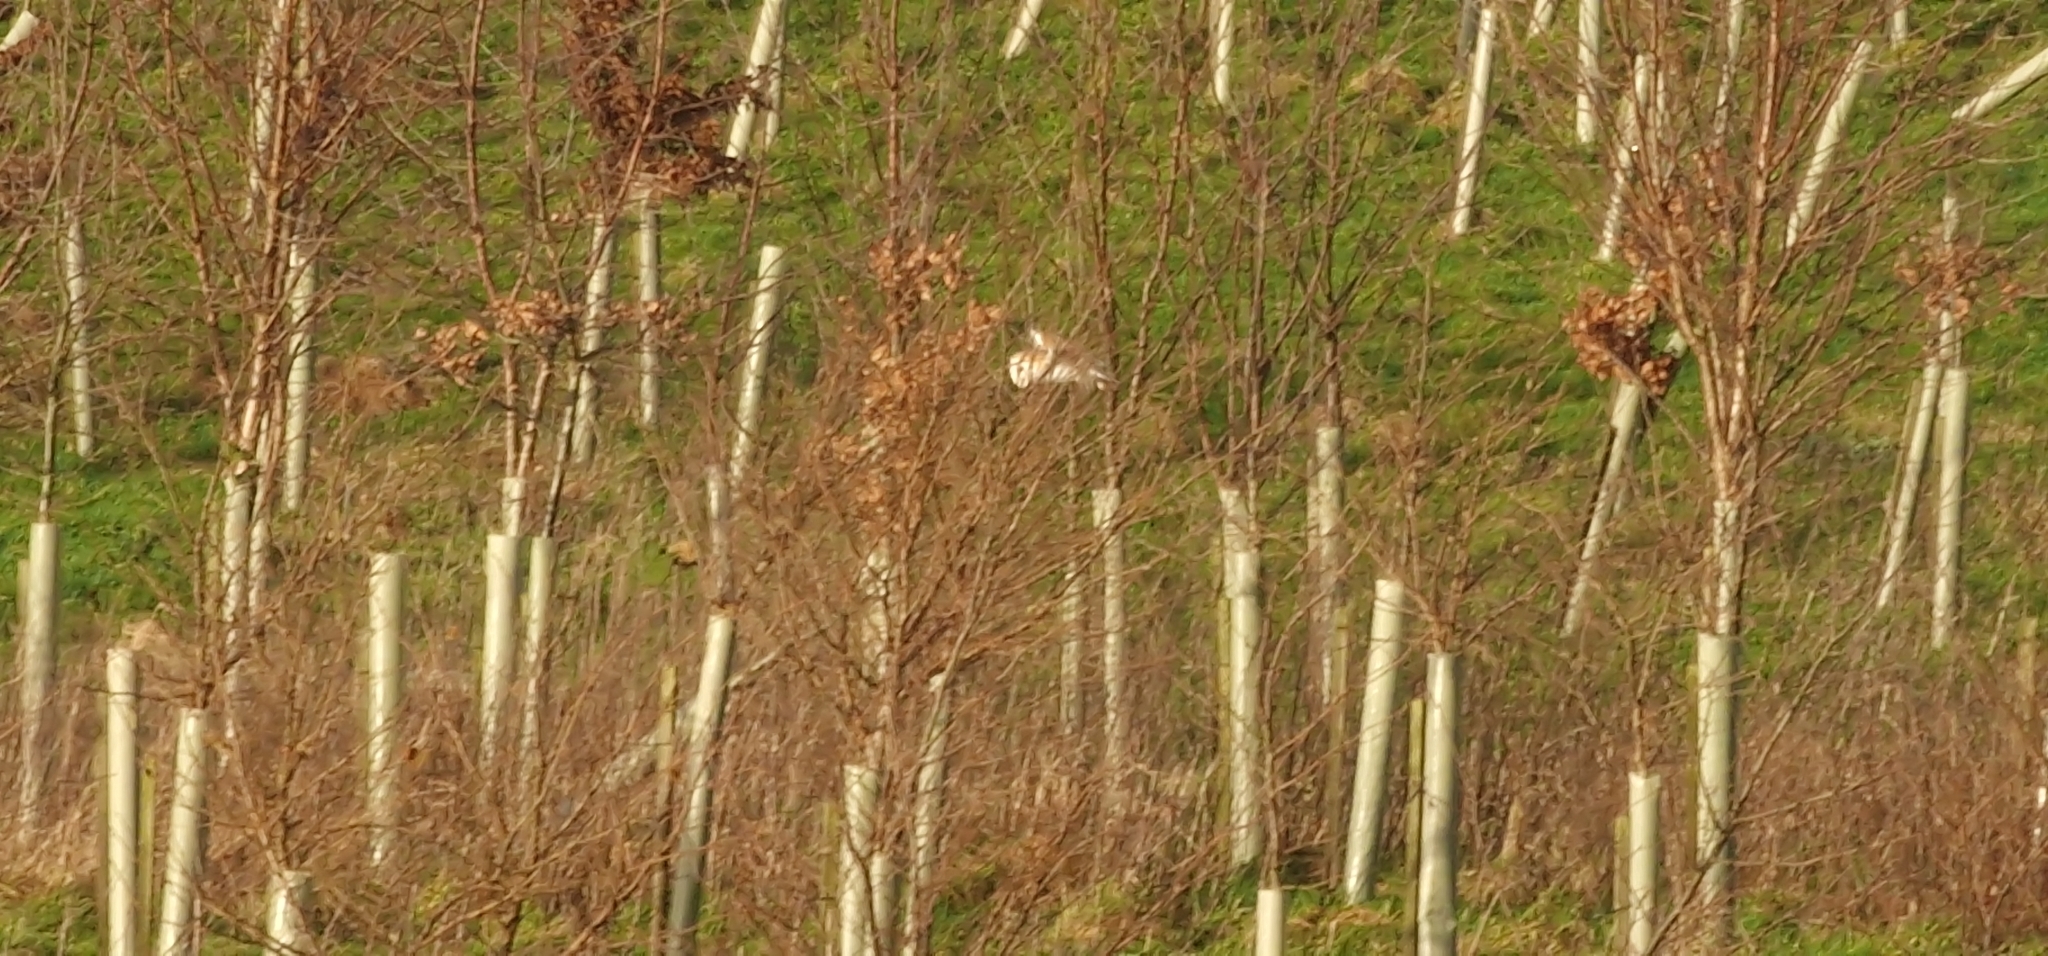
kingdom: Animalia
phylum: Chordata
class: Aves
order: Strigiformes
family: Tytonidae
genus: Tyto
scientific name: Tyto alba
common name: Barn owl
